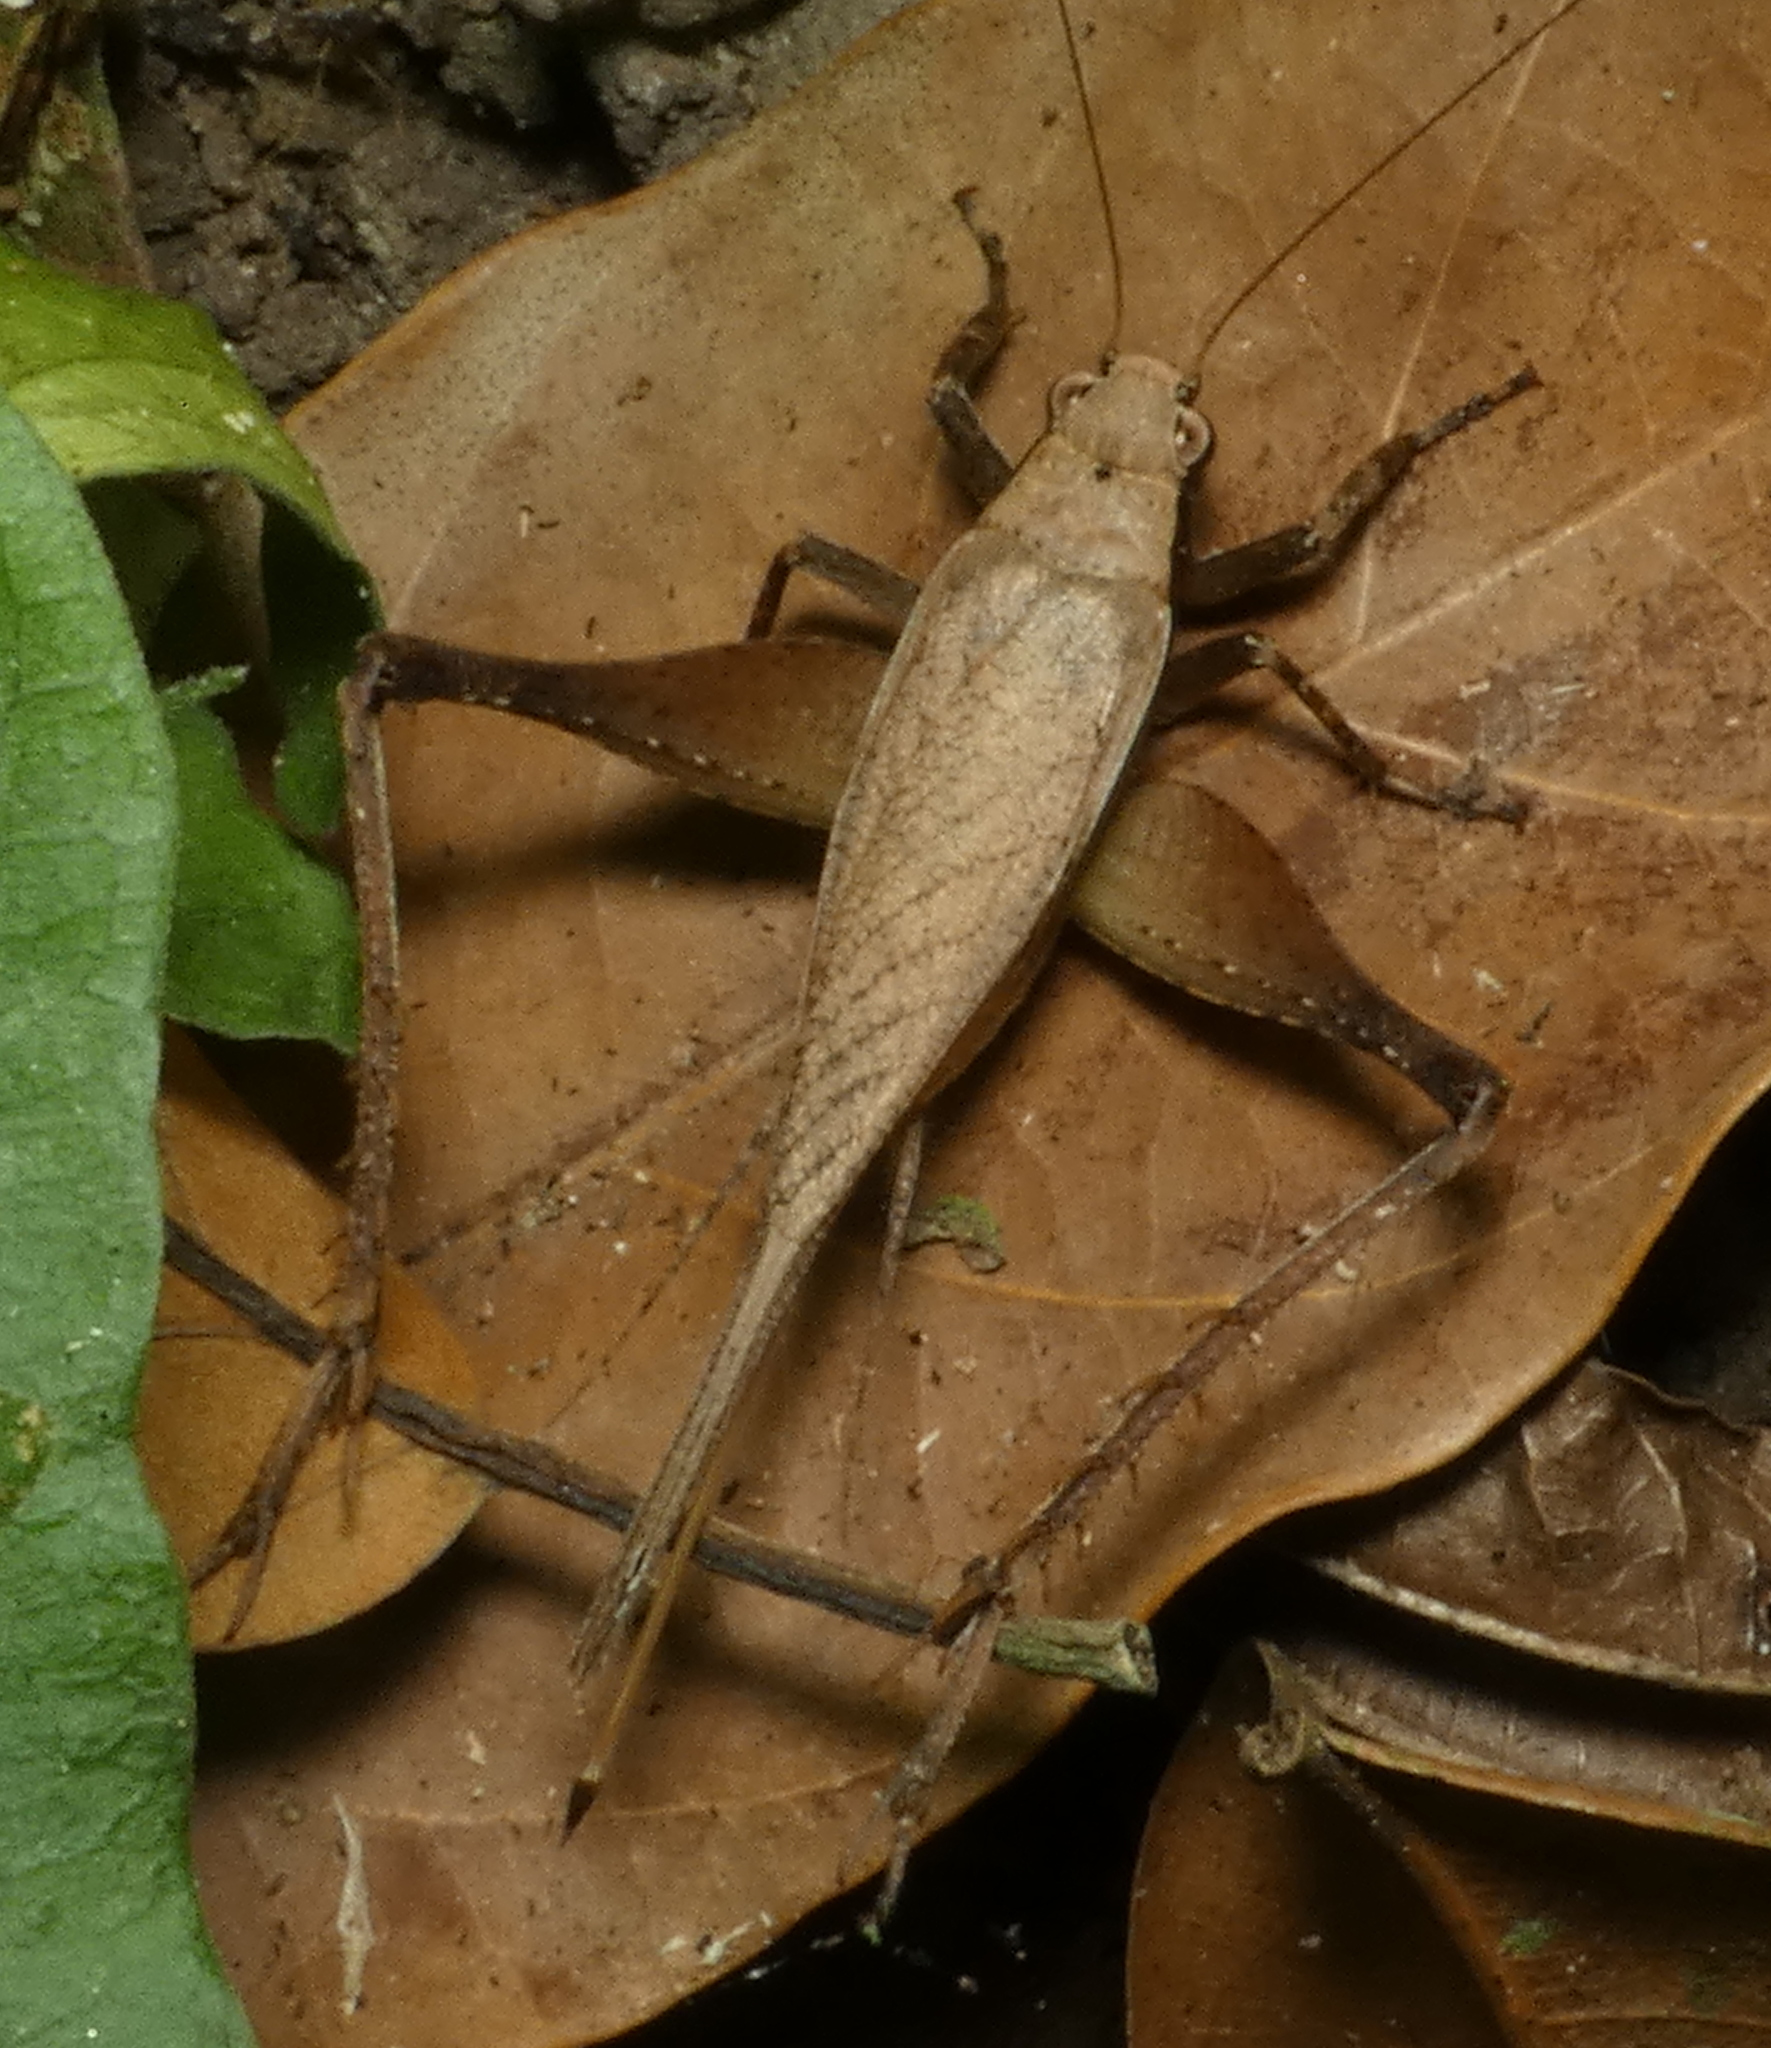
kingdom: Animalia
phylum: Arthropoda
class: Insecta
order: Orthoptera
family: Gryllidae
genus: Eneoptera
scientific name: Eneoptera surinamensis
